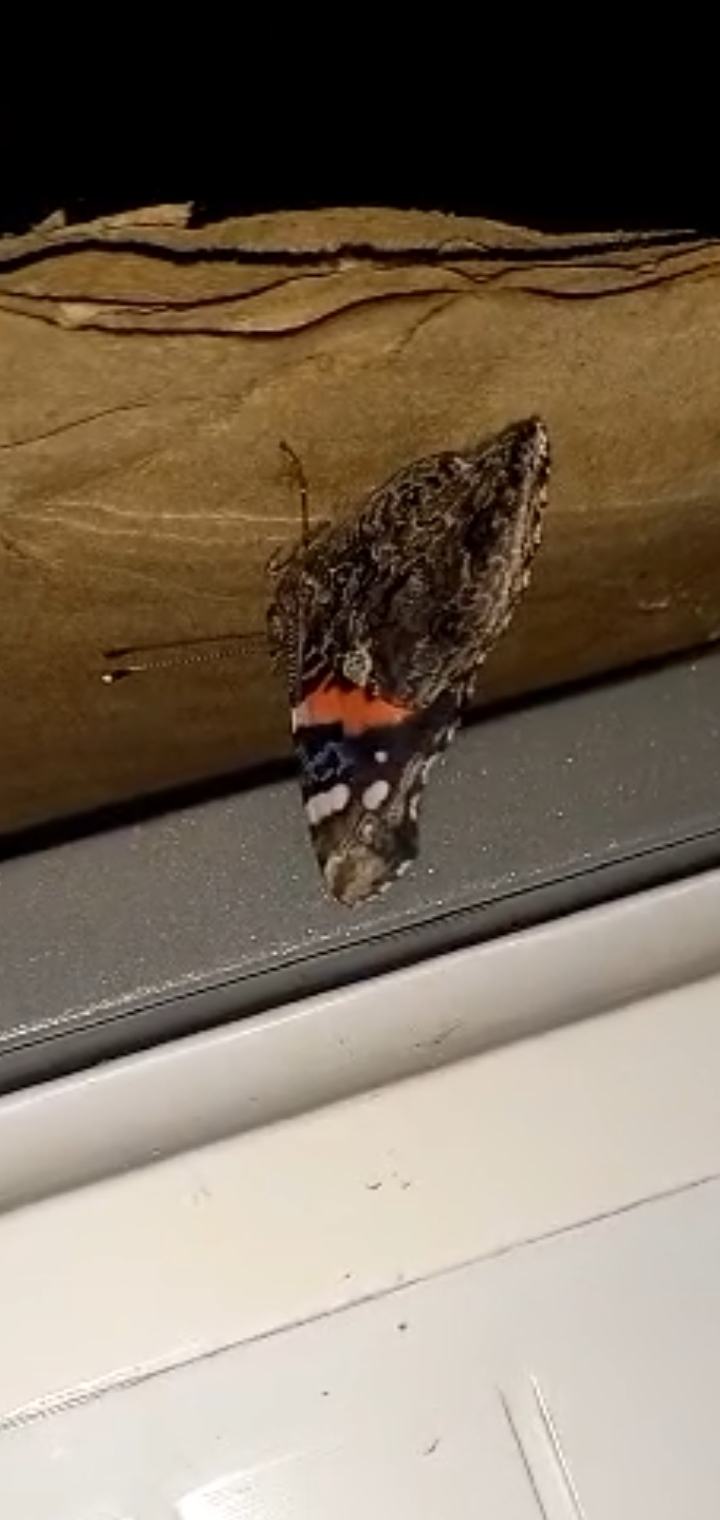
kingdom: Animalia
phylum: Arthropoda
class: Insecta
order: Lepidoptera
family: Nymphalidae
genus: Vanessa
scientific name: Vanessa atalanta
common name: Red admiral
